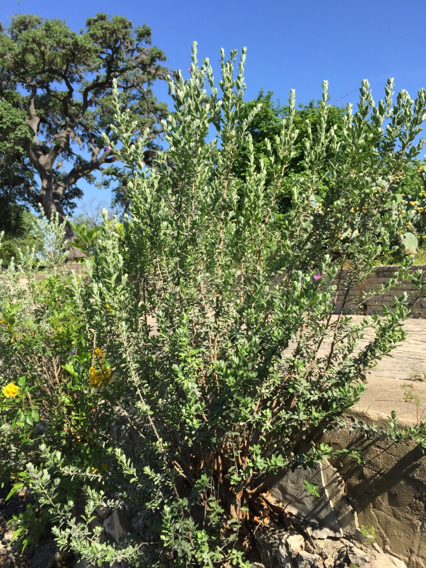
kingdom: Plantae
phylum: Tracheophyta
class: Magnoliopsida
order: Lamiales
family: Scrophulariaceae
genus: Leucophyllum
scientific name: Leucophyllum frutescens
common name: Texas silverleaf
